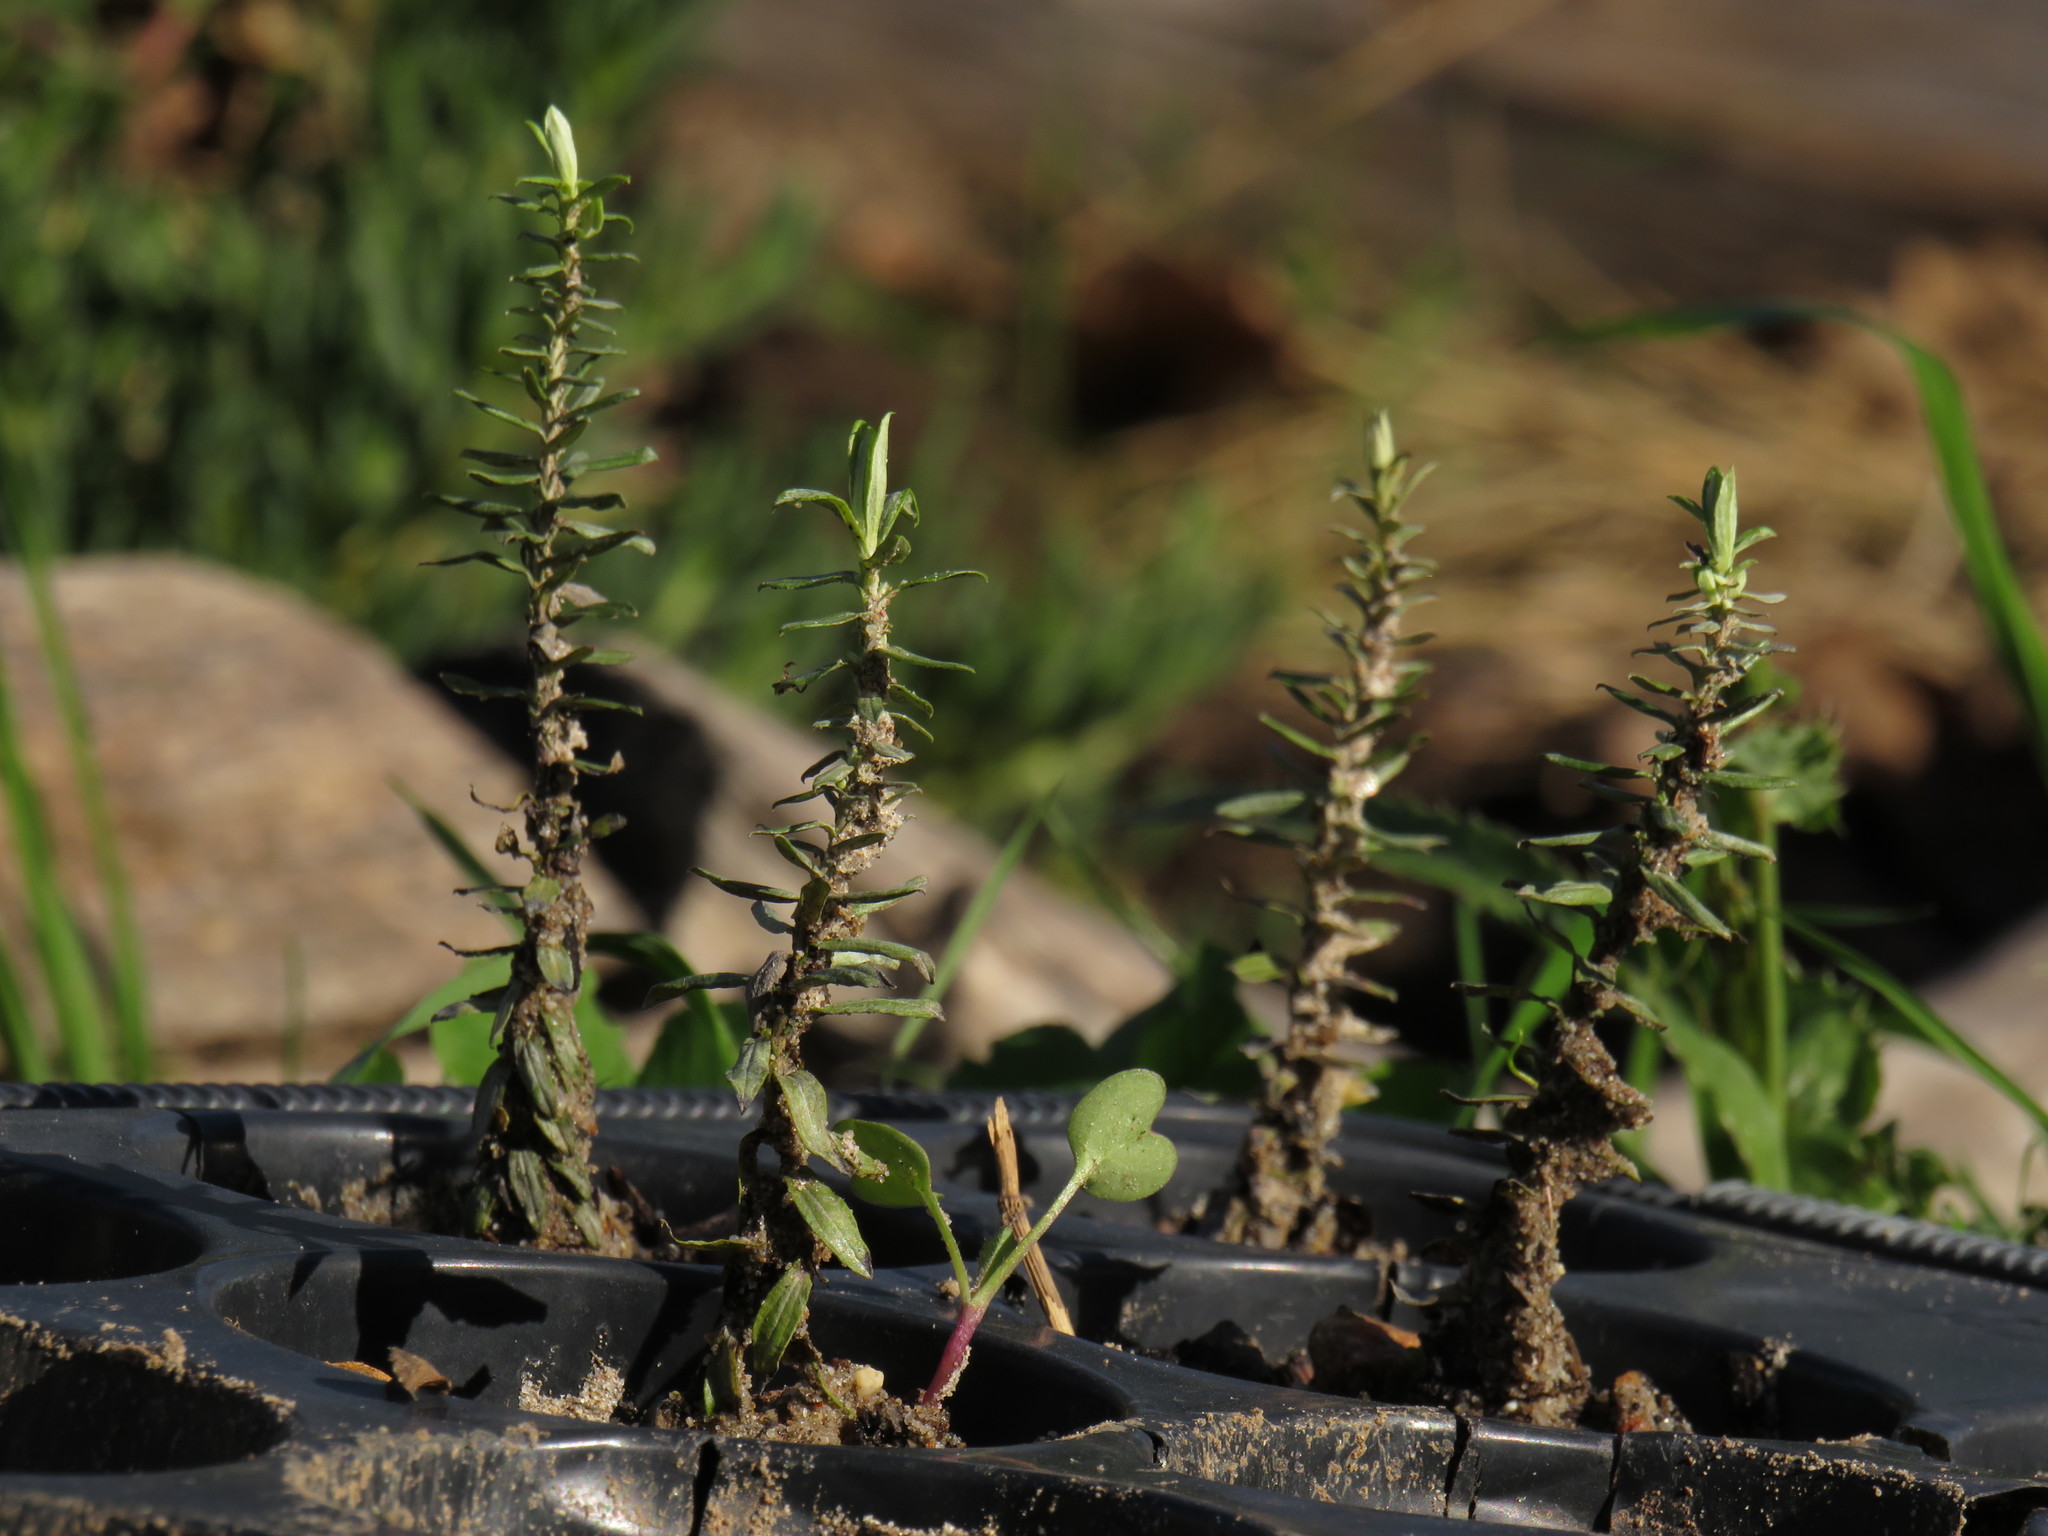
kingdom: Plantae
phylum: Tracheophyta
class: Magnoliopsida
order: Asterales
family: Asteraceae
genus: Helichrysum
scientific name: Helichrysum cymosum
